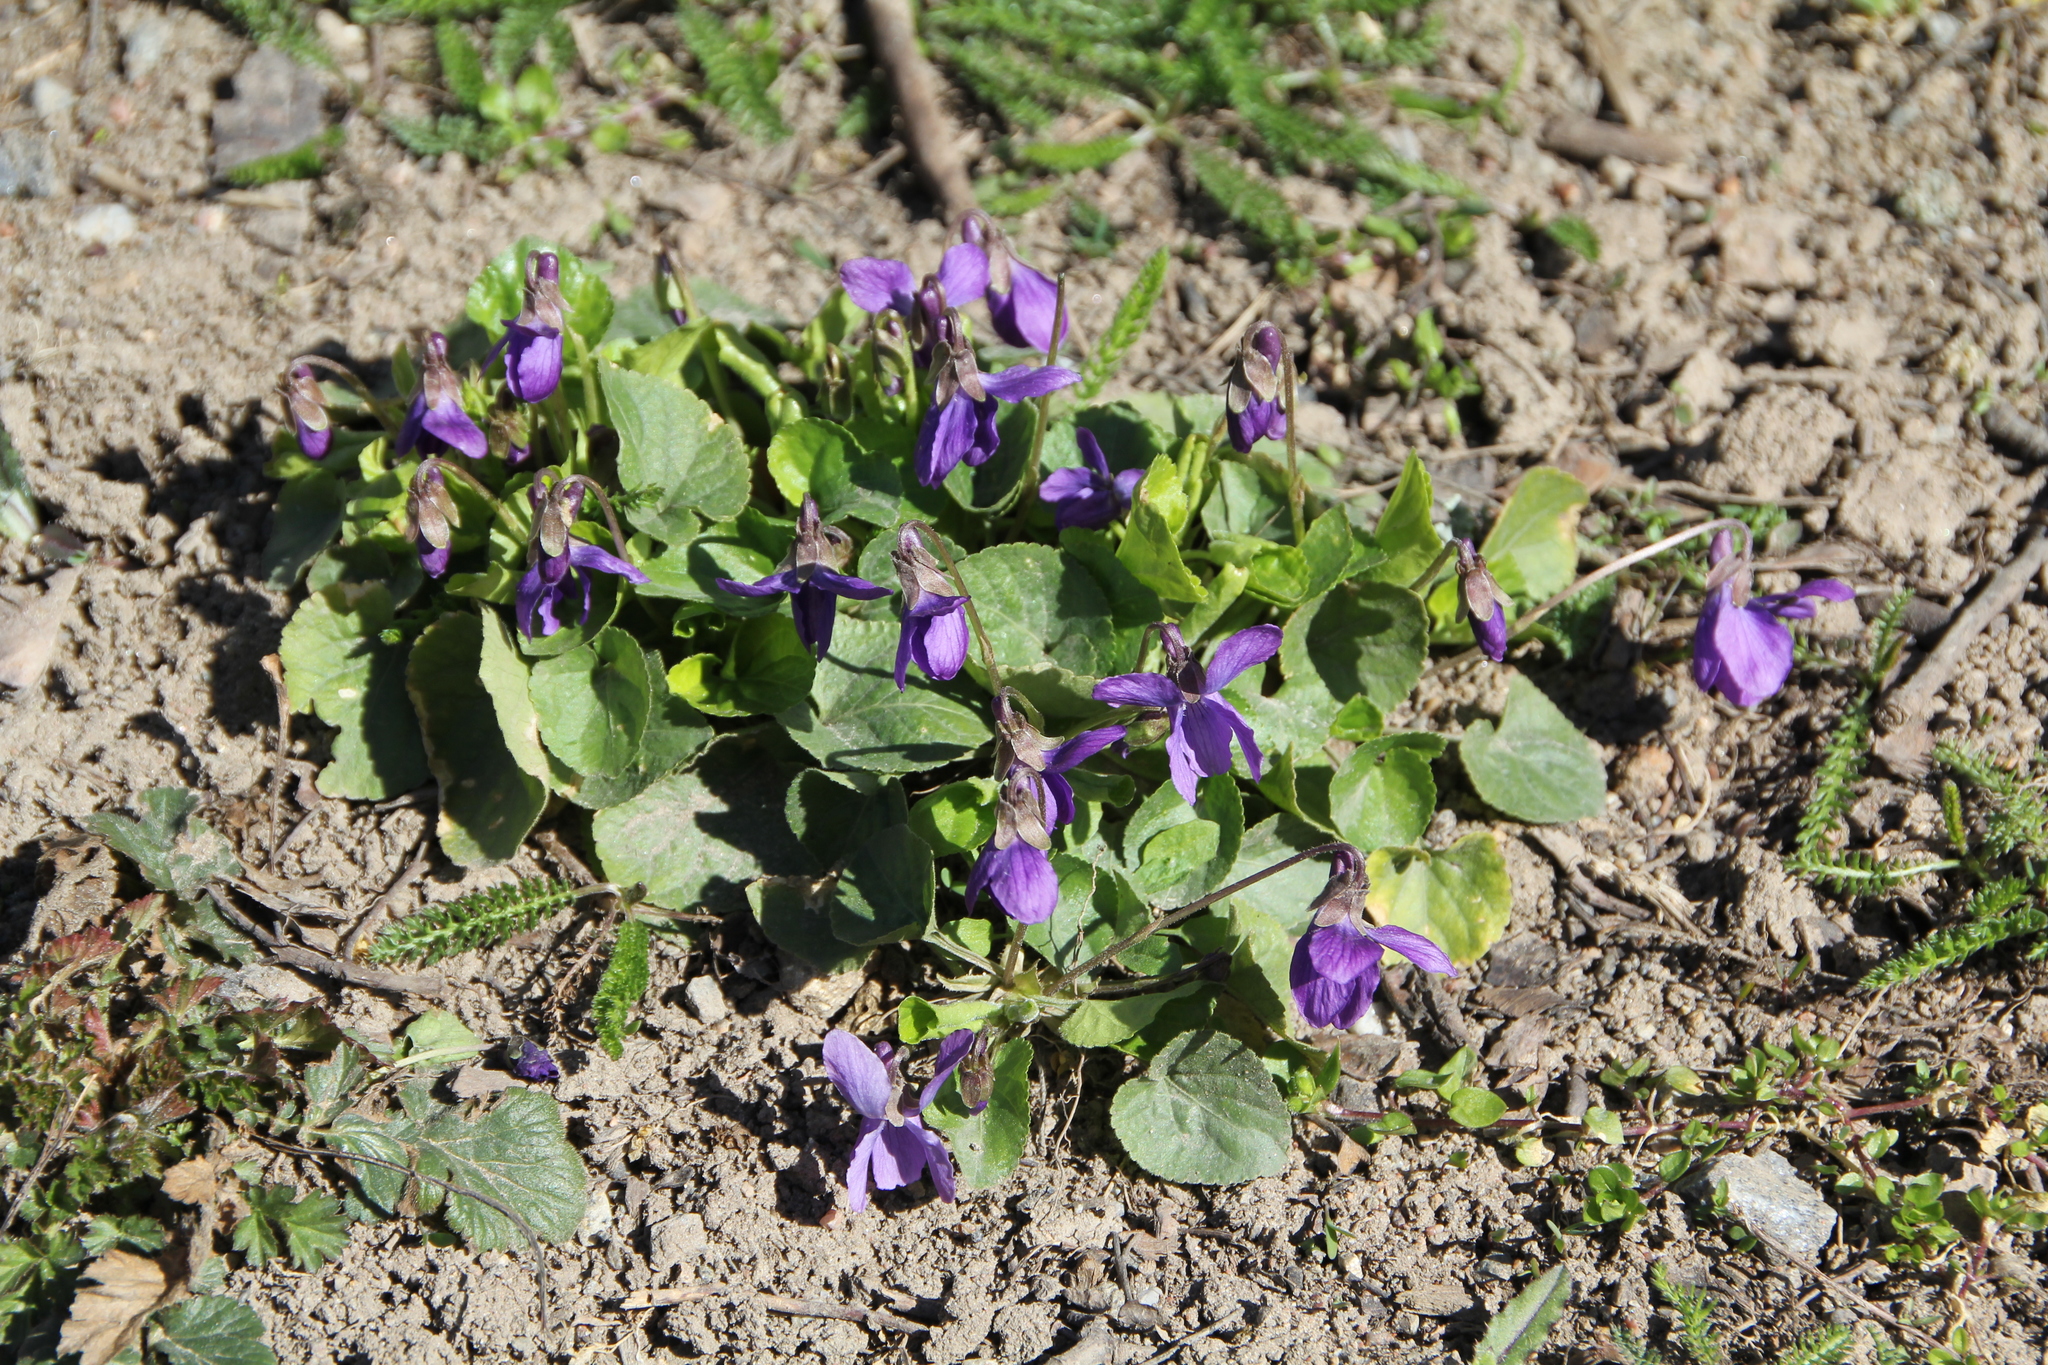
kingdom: Plantae
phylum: Tracheophyta
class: Magnoliopsida
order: Malpighiales
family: Violaceae
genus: Viola
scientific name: Viola odorata
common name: Sweet violet
